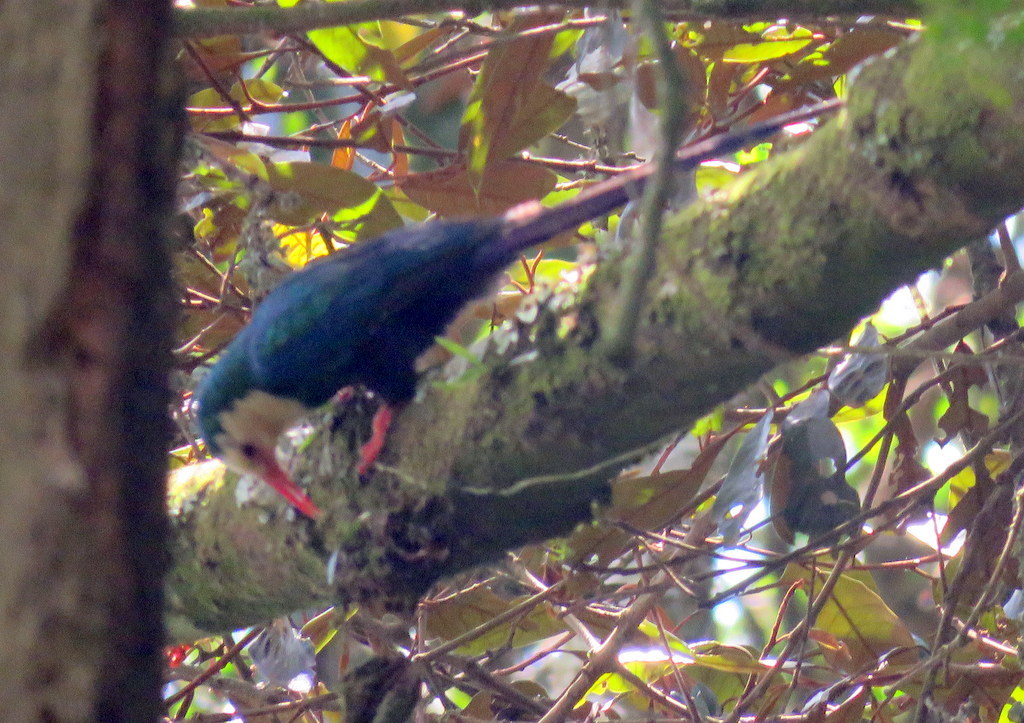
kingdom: Animalia
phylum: Chordata
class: Aves
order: Bucerotiformes
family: Phoeniculidae
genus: Phoeniculus
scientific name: Phoeniculus bollei
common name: White-headed woodhoopoe
